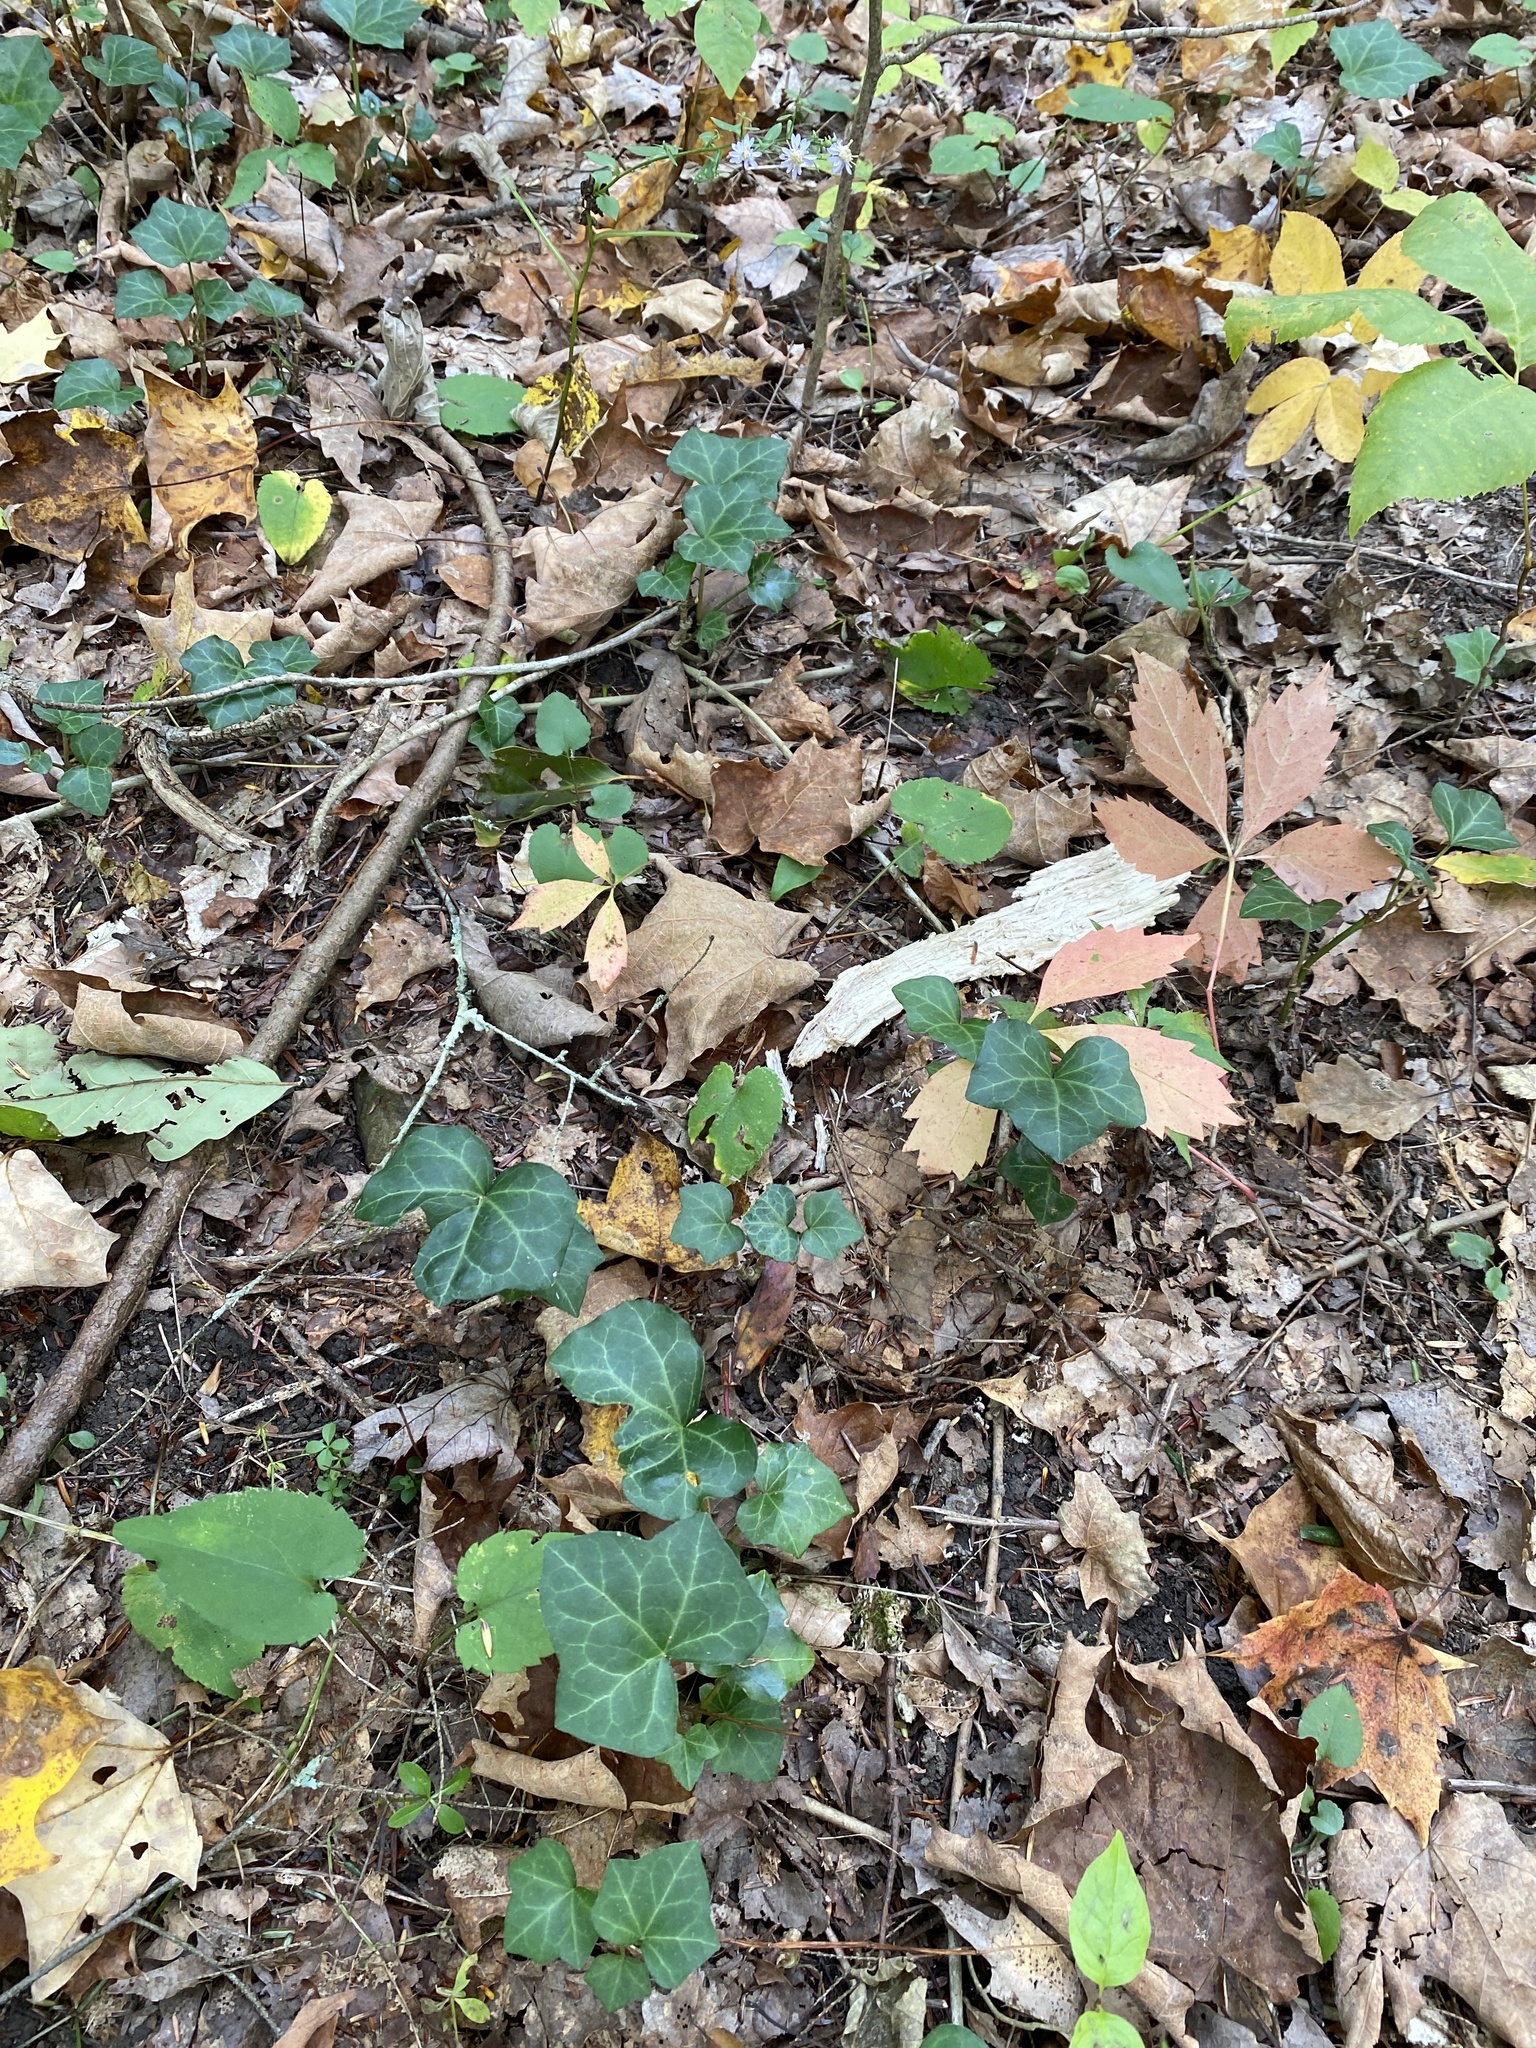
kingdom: Plantae
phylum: Tracheophyta
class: Magnoliopsida
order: Apiales
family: Araliaceae
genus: Hedera
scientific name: Hedera helix
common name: Ivy
